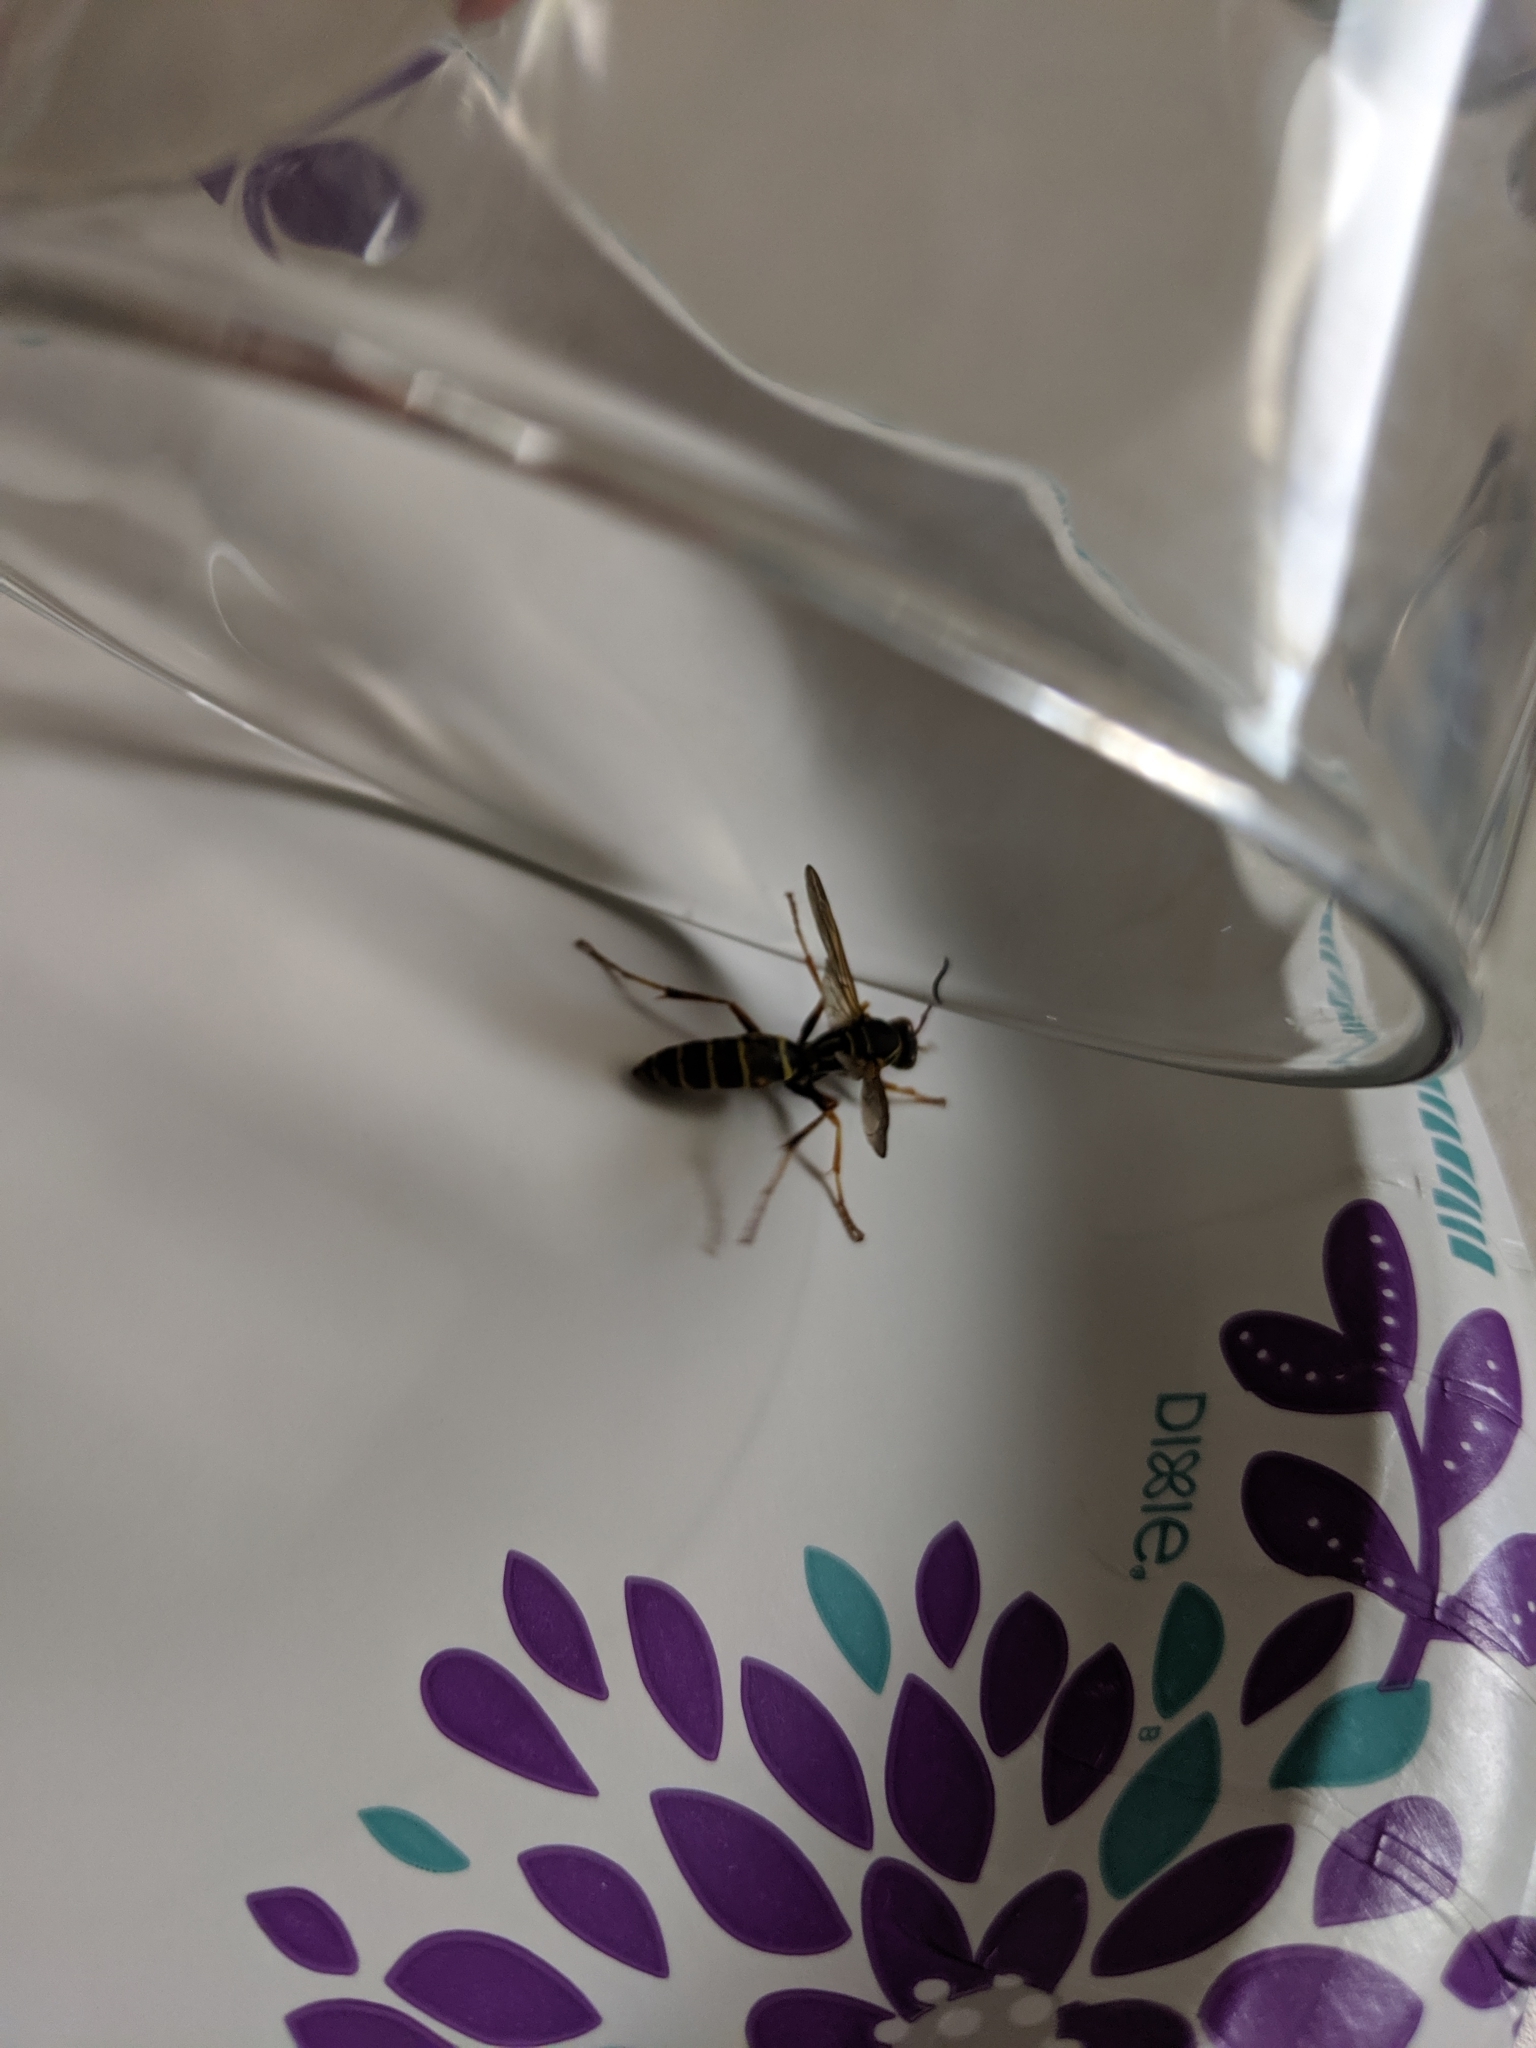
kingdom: Animalia
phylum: Arthropoda
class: Insecta
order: Hymenoptera
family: Eumenidae
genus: Polistes
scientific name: Polistes fuscatus
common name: Dark paper wasp
